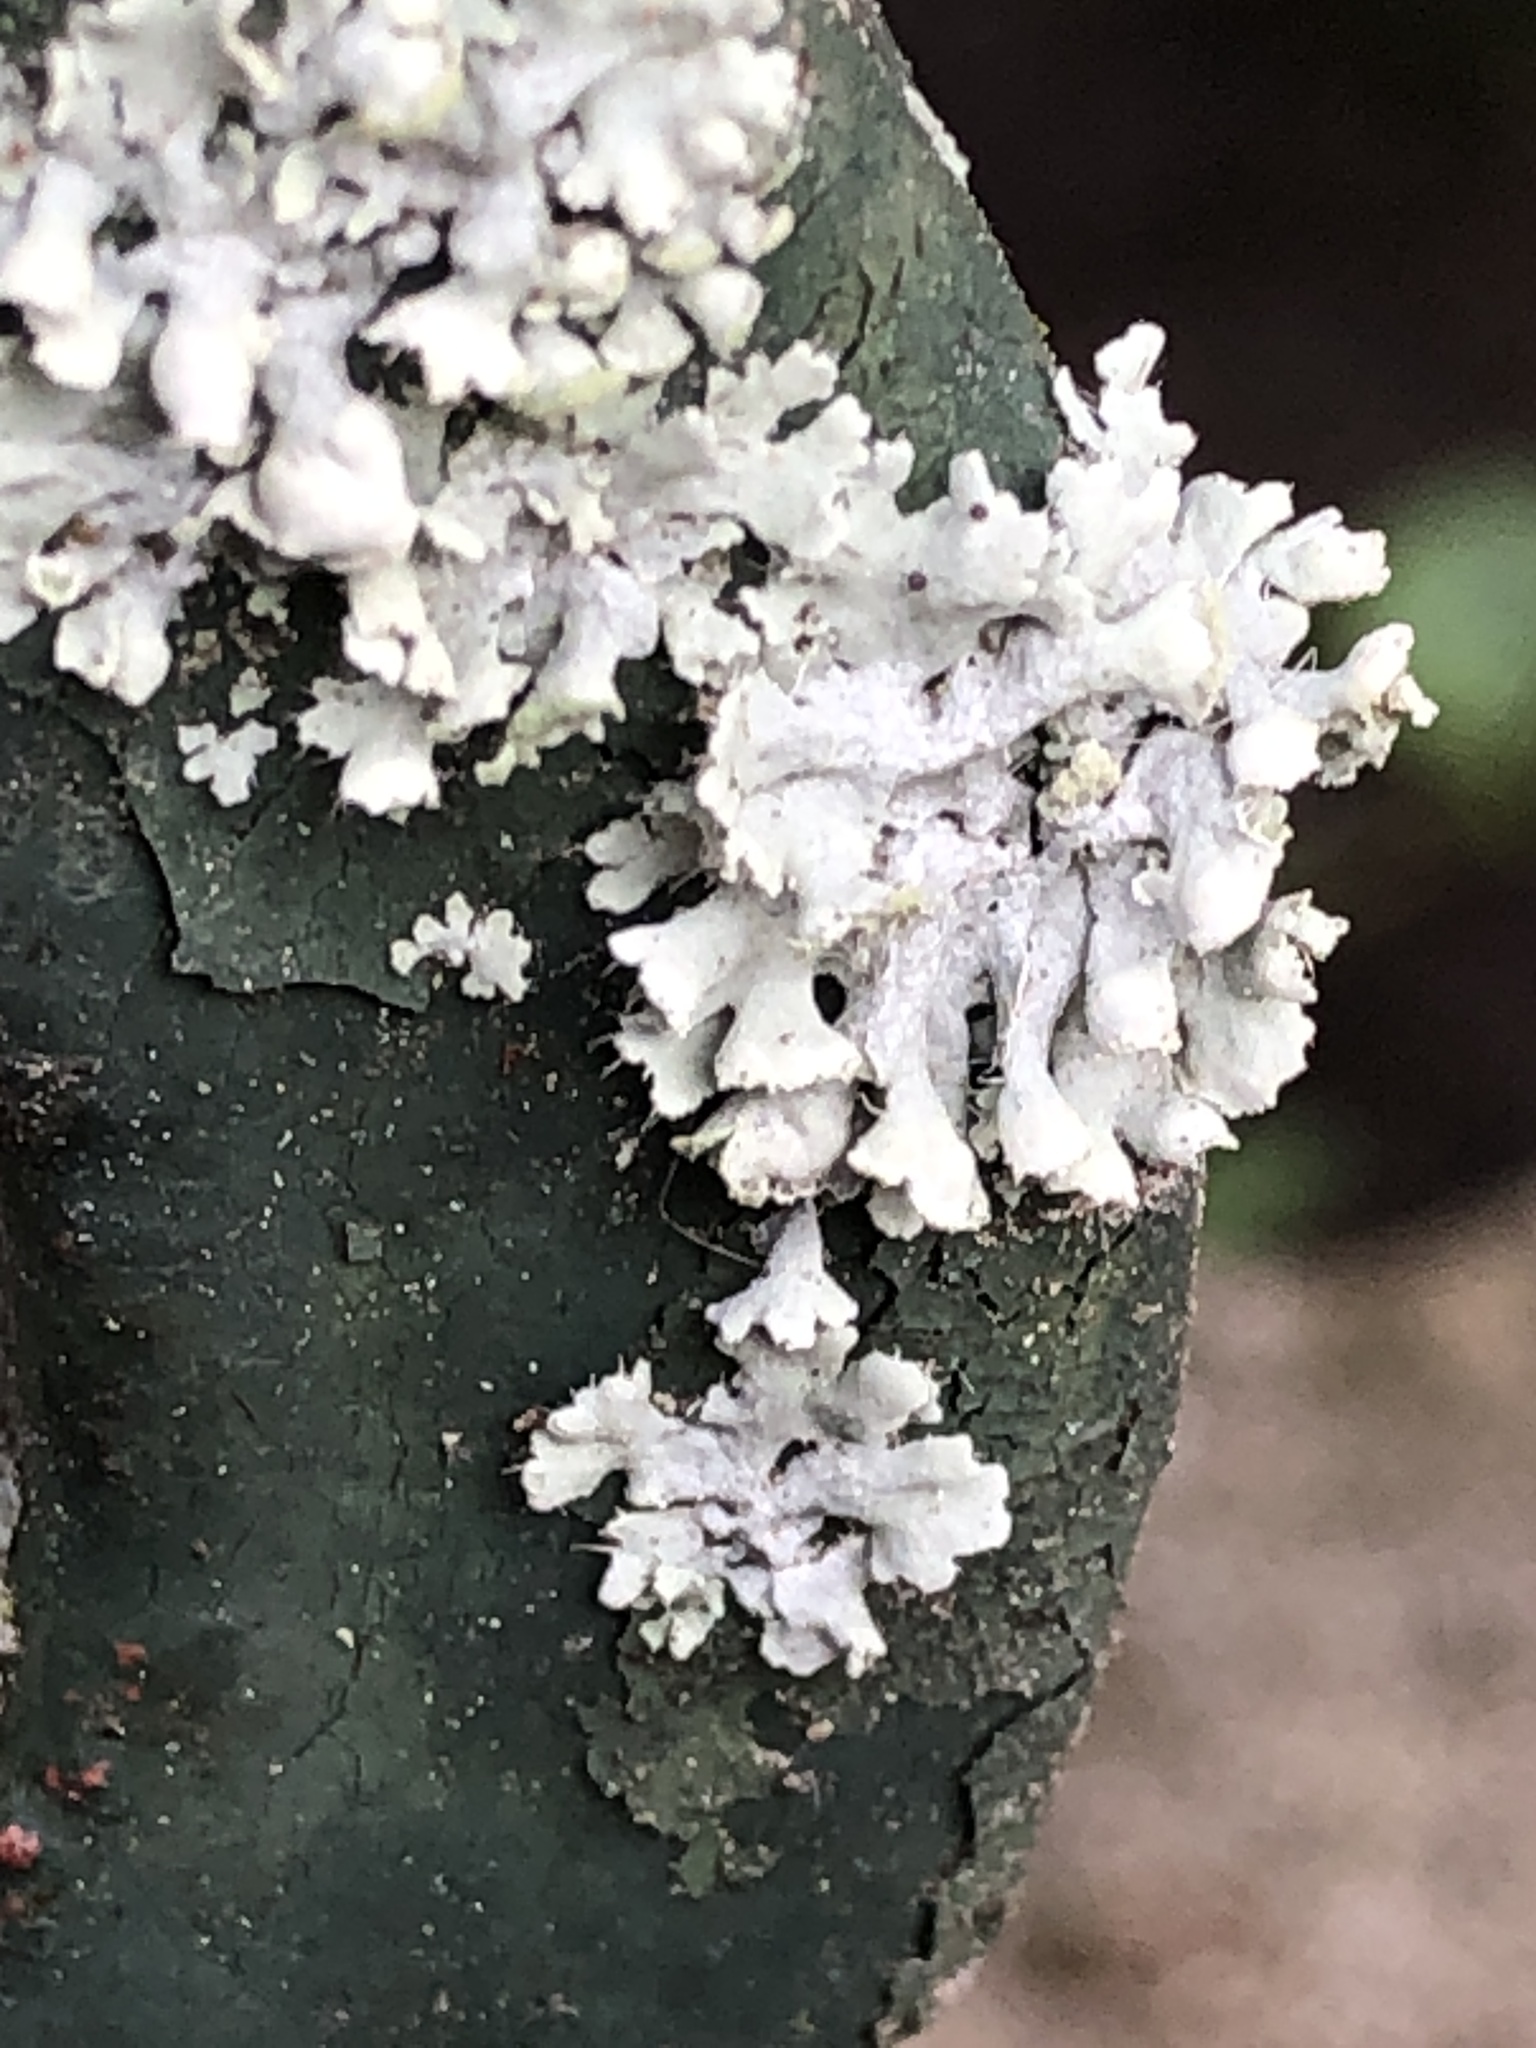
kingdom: Fungi
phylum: Ascomycota
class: Lecanoromycetes
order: Caliciales
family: Physciaceae
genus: Physcia
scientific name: Physcia adscendens
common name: Hooded rosette lichen
